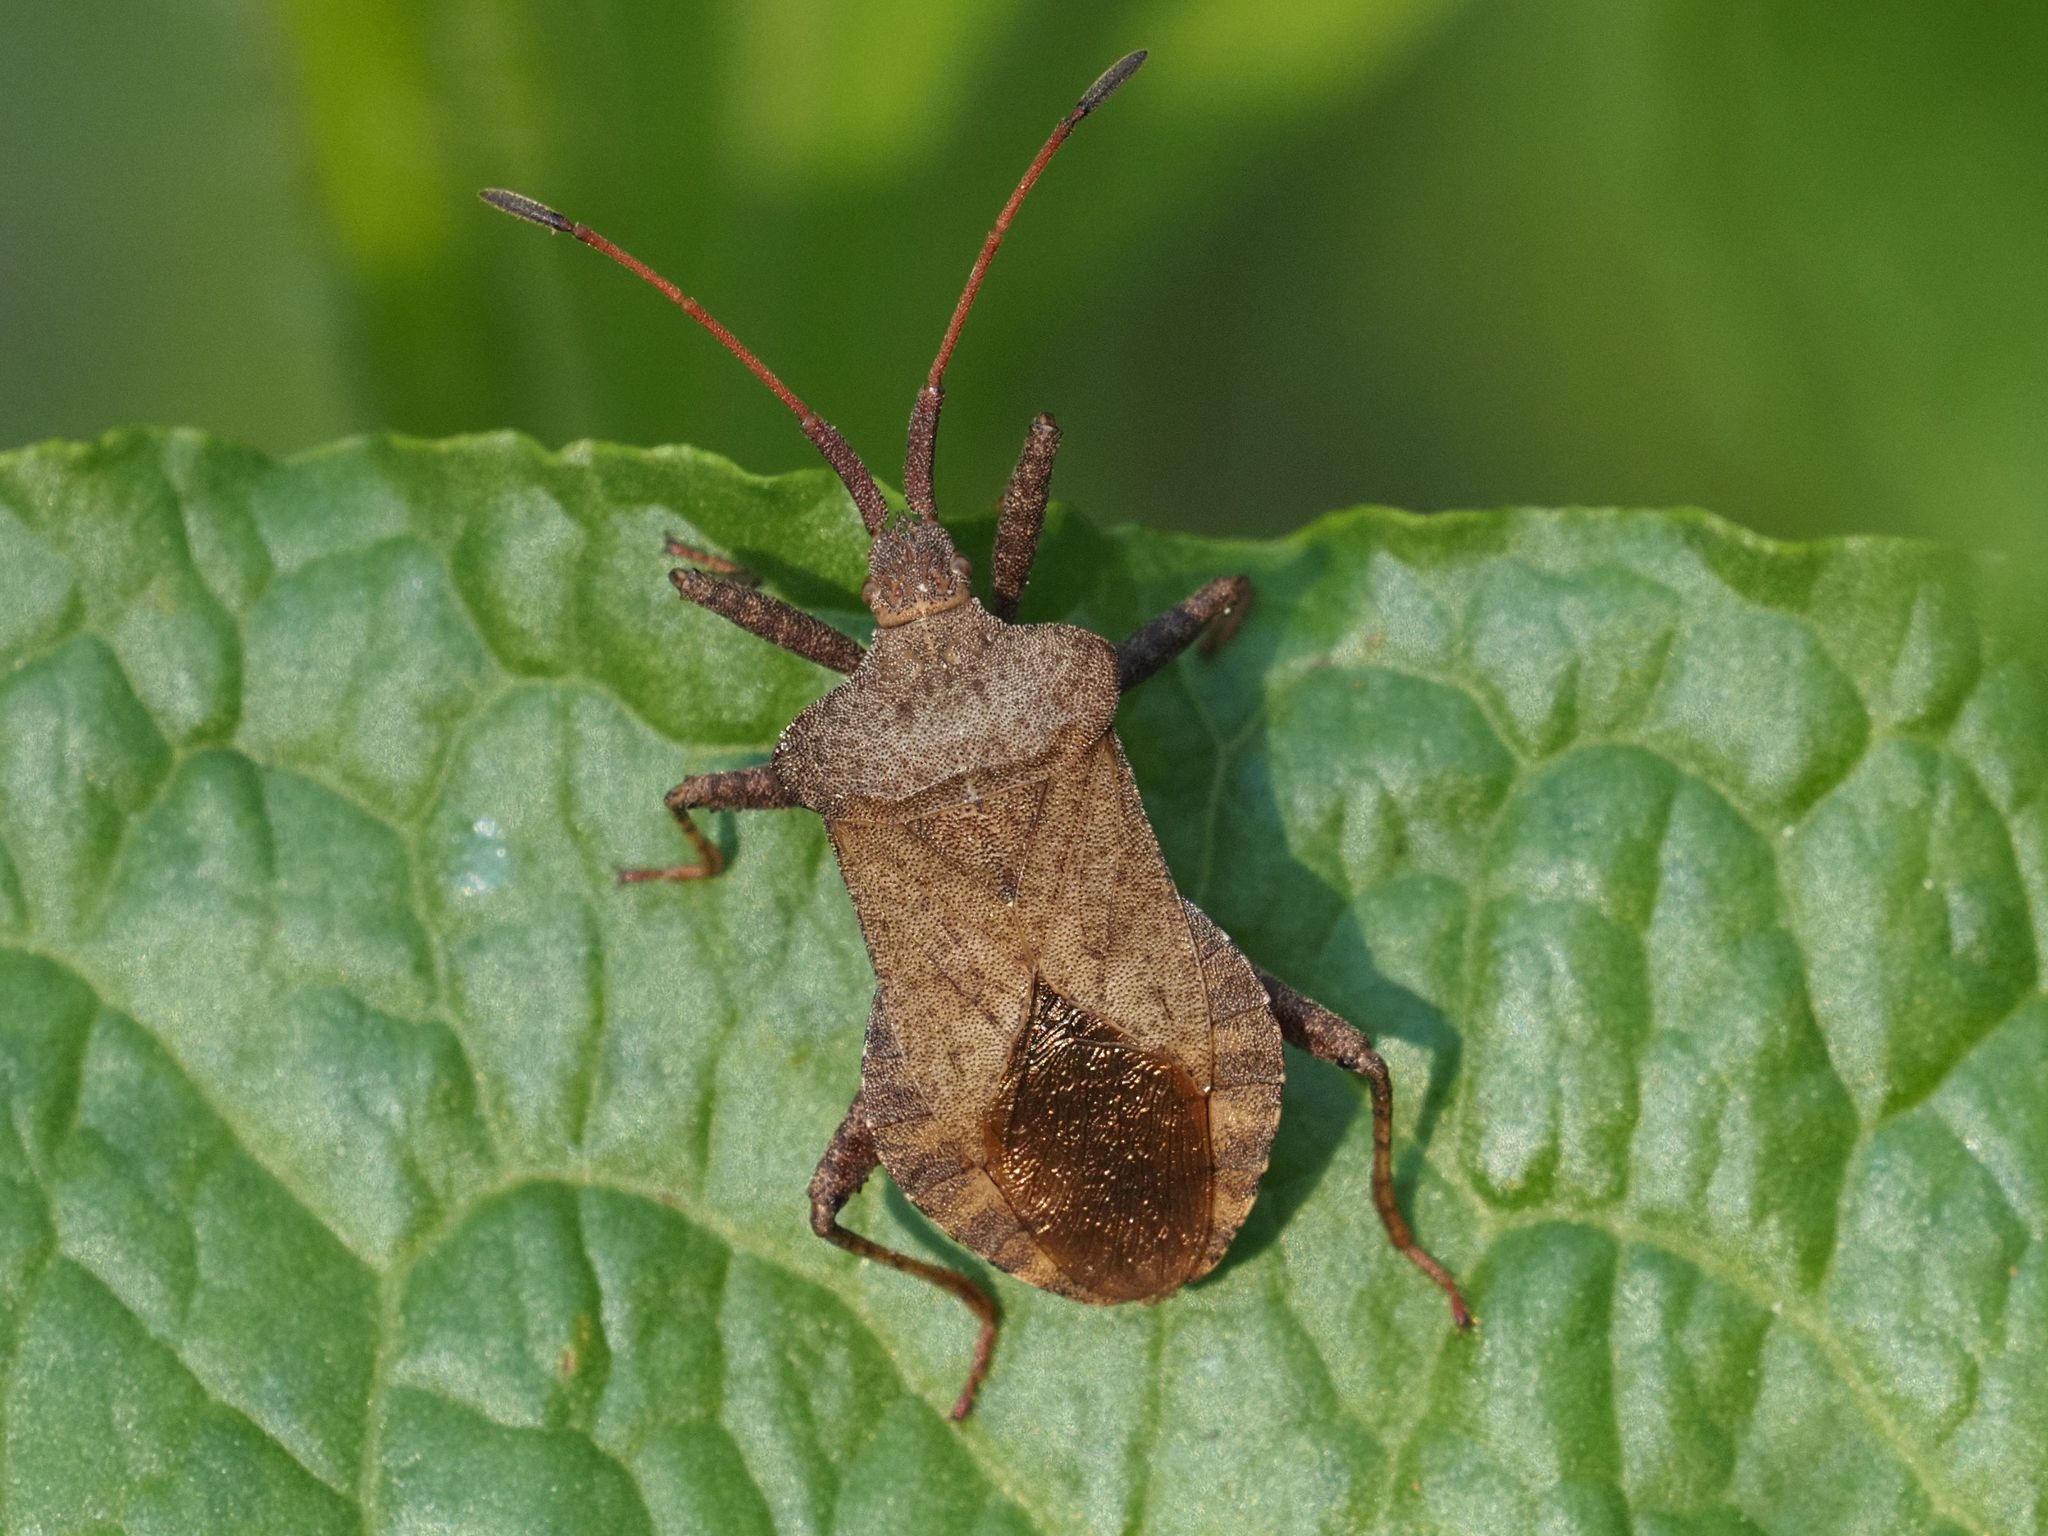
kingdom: Animalia
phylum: Arthropoda
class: Insecta
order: Hemiptera
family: Coreidae
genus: Coreus
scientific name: Coreus marginatus
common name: Dock bug
